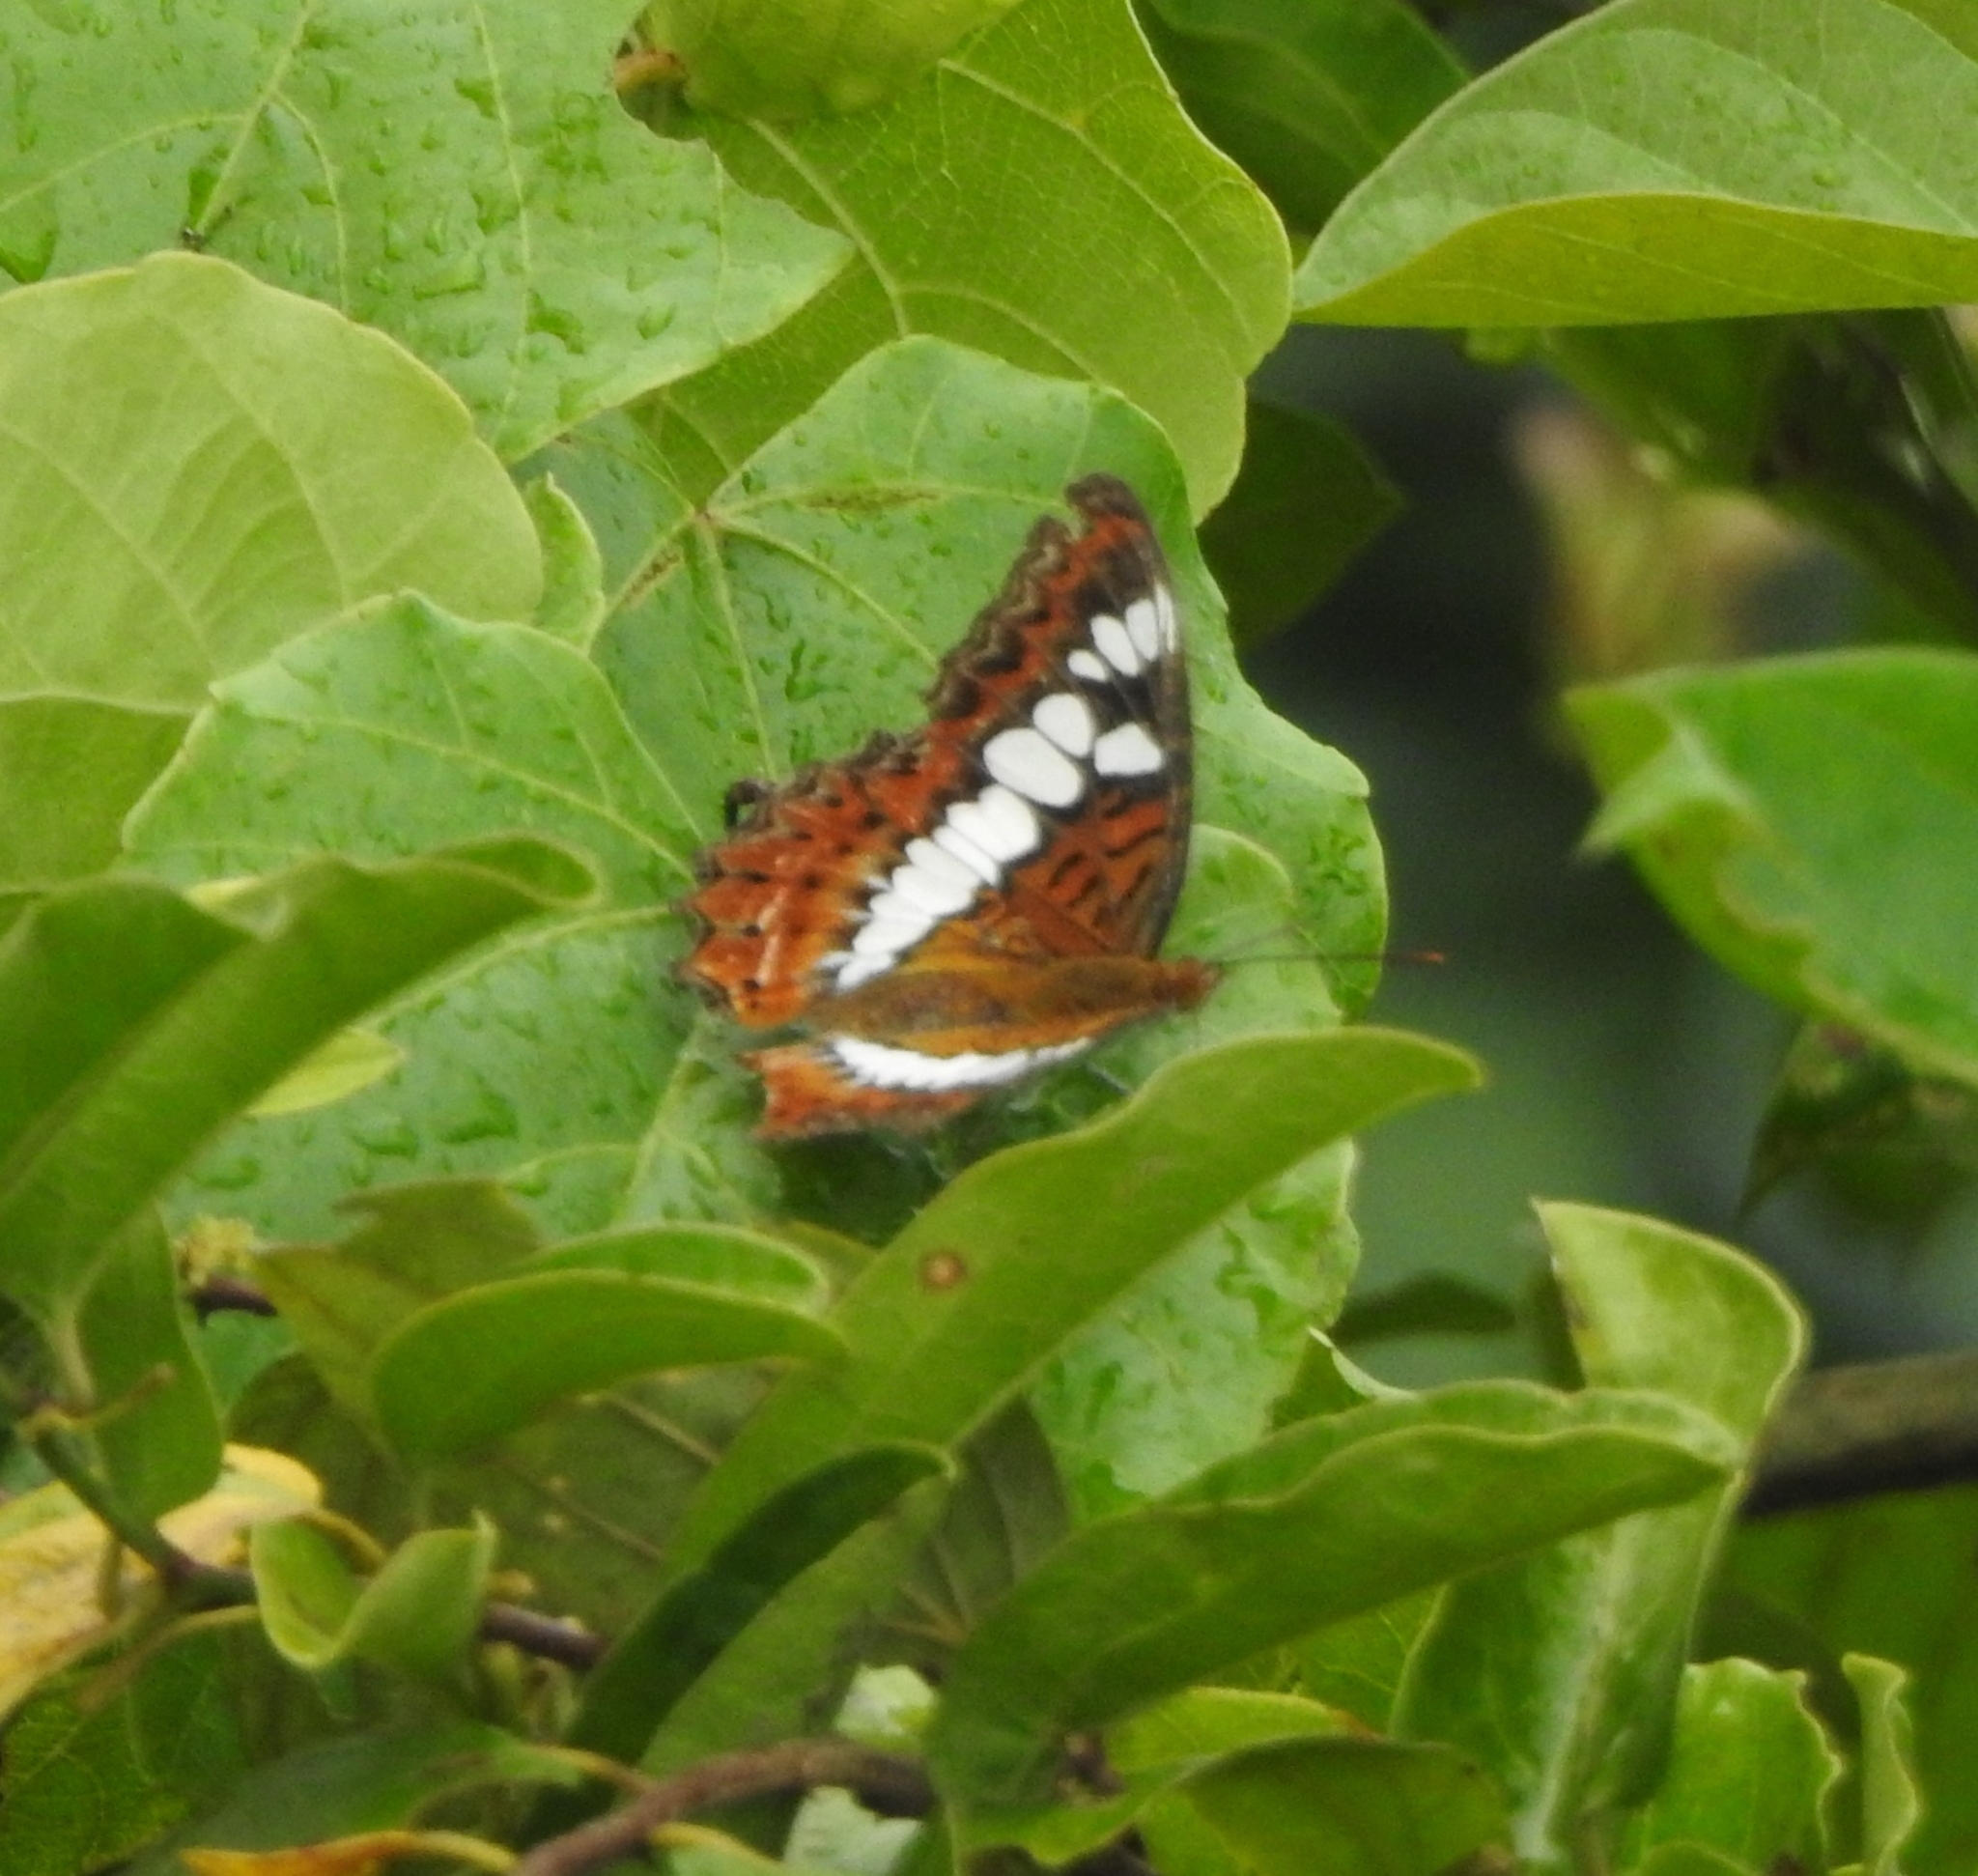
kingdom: Animalia
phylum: Arthropoda
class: Insecta
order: Lepidoptera
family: Nymphalidae
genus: Limenitis
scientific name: Limenitis Moduza procris
